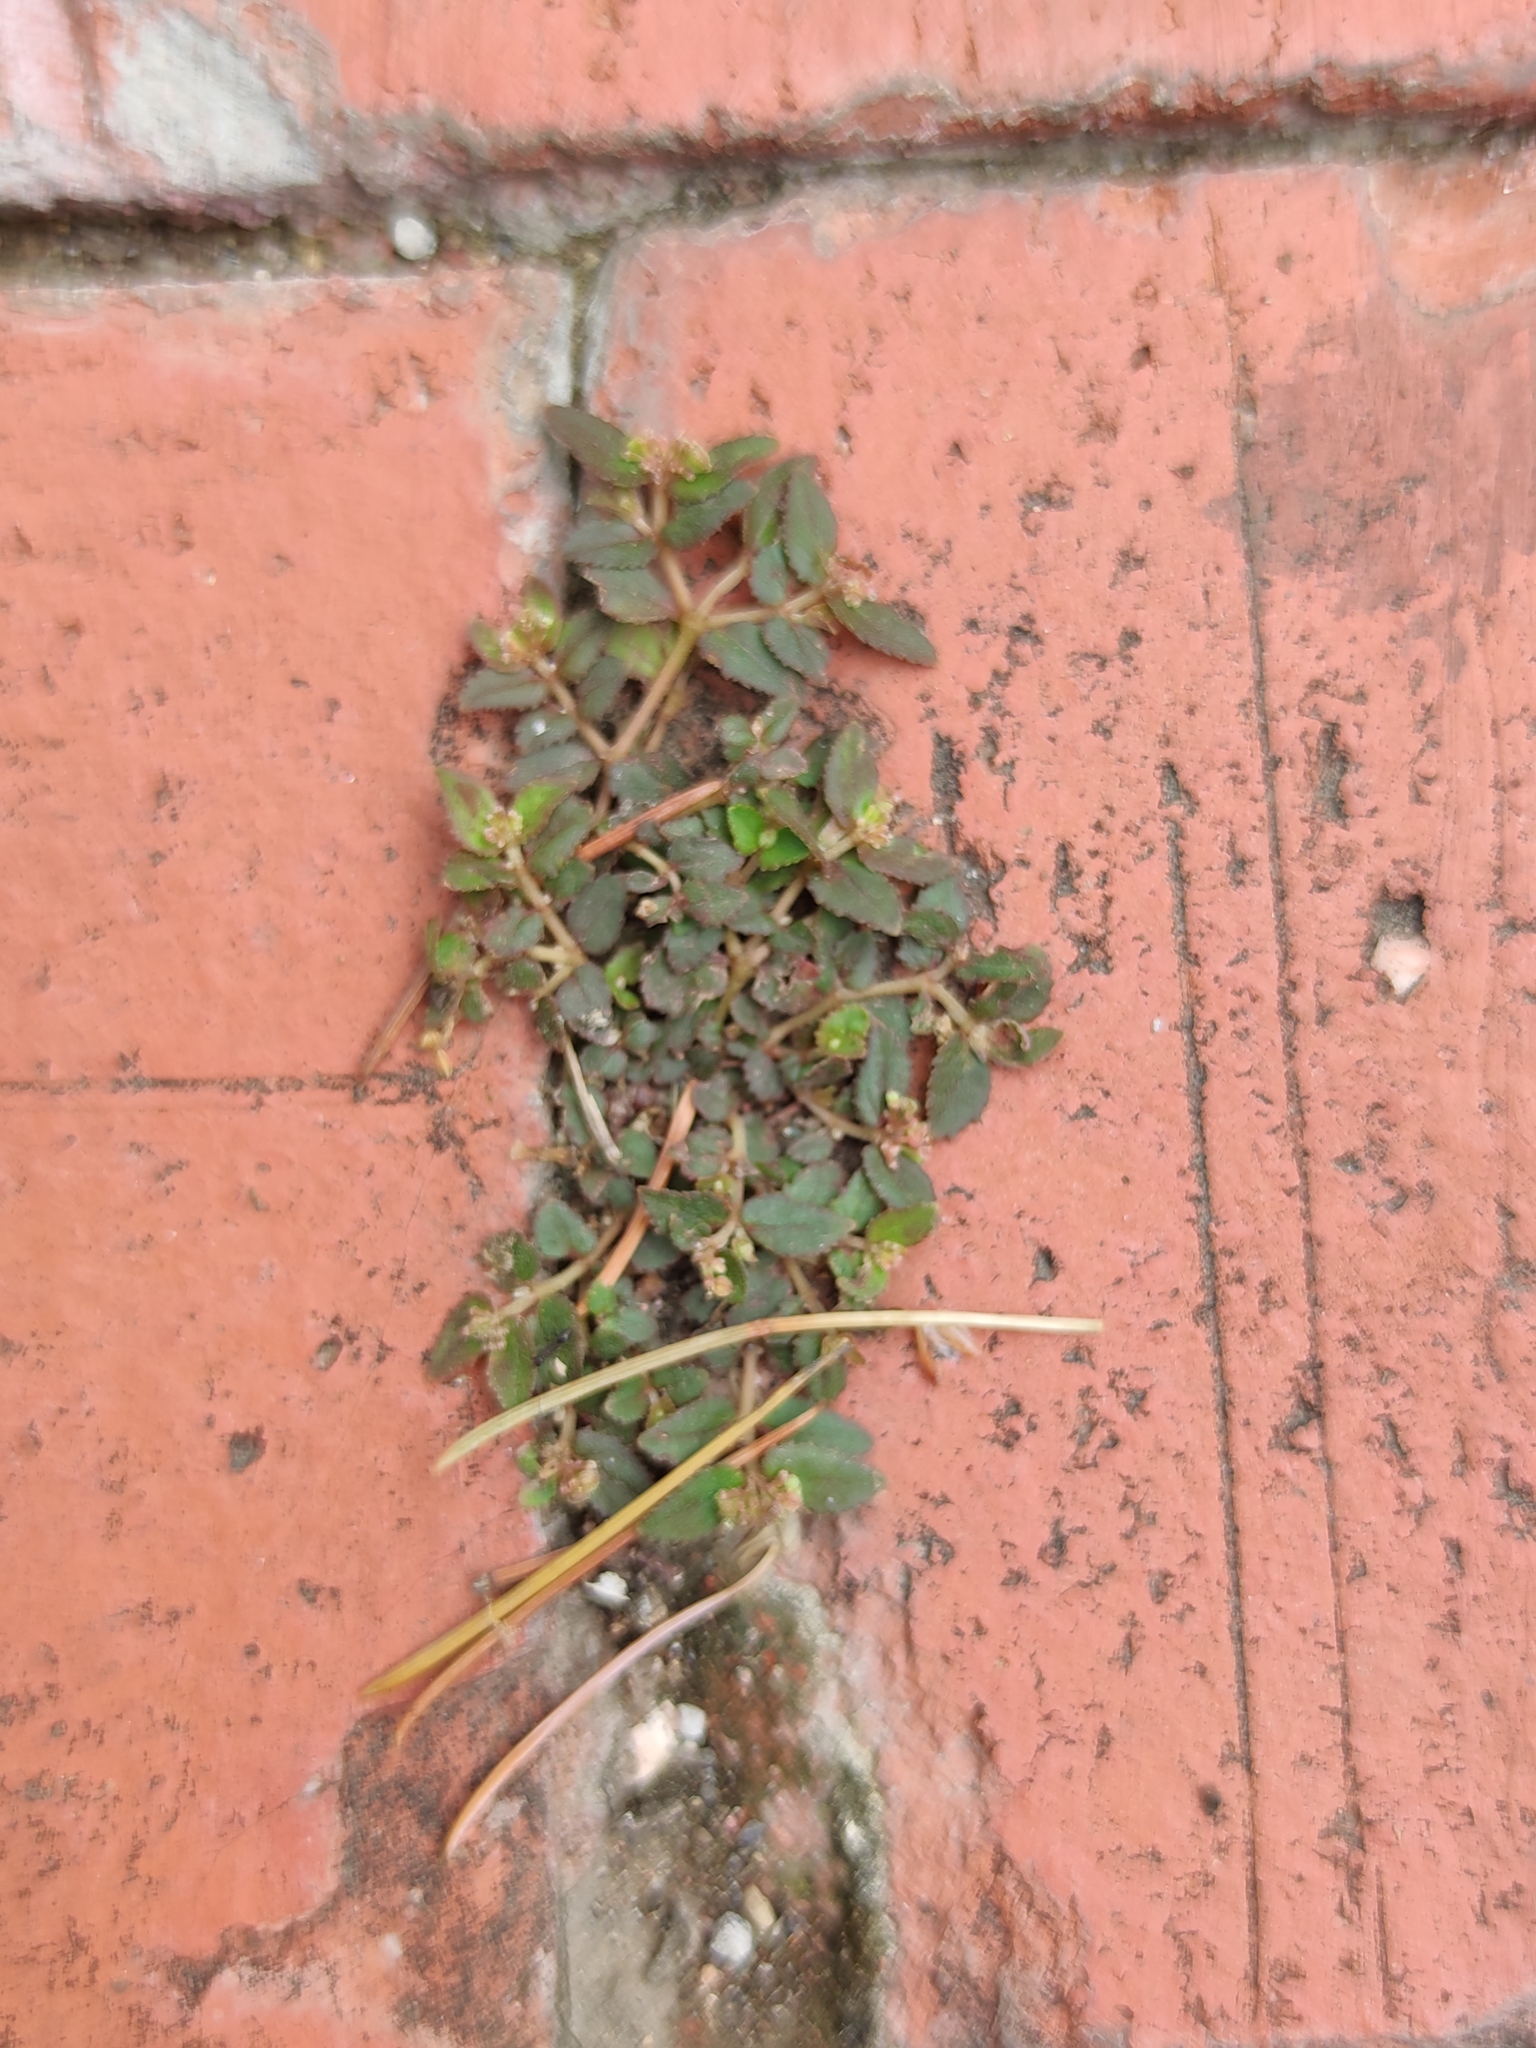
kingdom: Plantae
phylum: Tracheophyta
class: Magnoliopsida
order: Malpighiales
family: Euphorbiaceae
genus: Euphorbia
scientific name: Euphorbia ophthalmica
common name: Florida hammock sandmat
